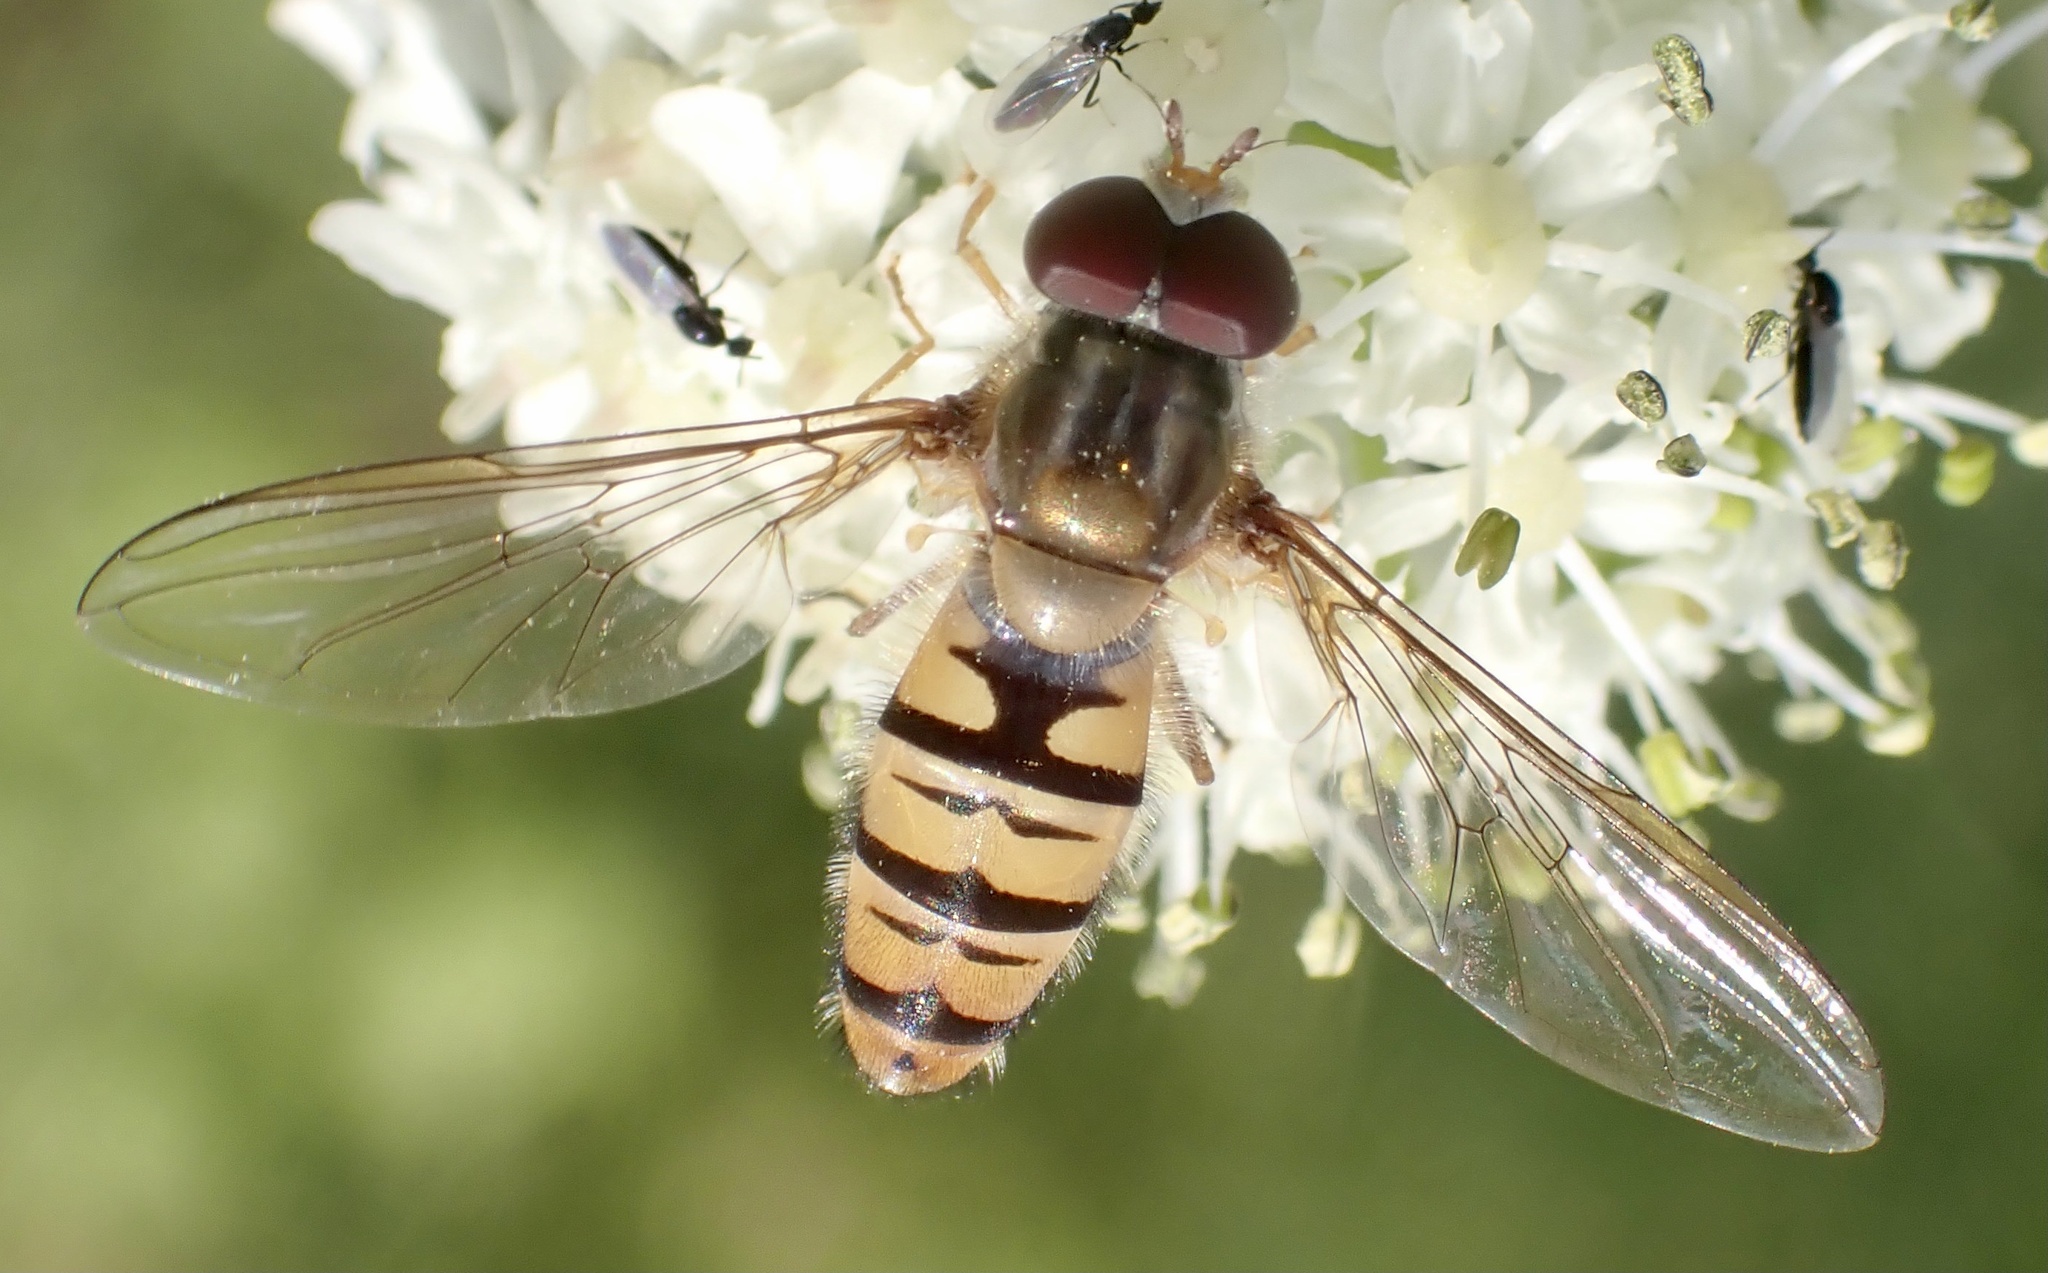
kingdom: Animalia
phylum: Arthropoda
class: Insecta
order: Diptera
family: Syrphidae
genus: Episyrphus
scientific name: Episyrphus balteatus
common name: Marmalade hoverfly
